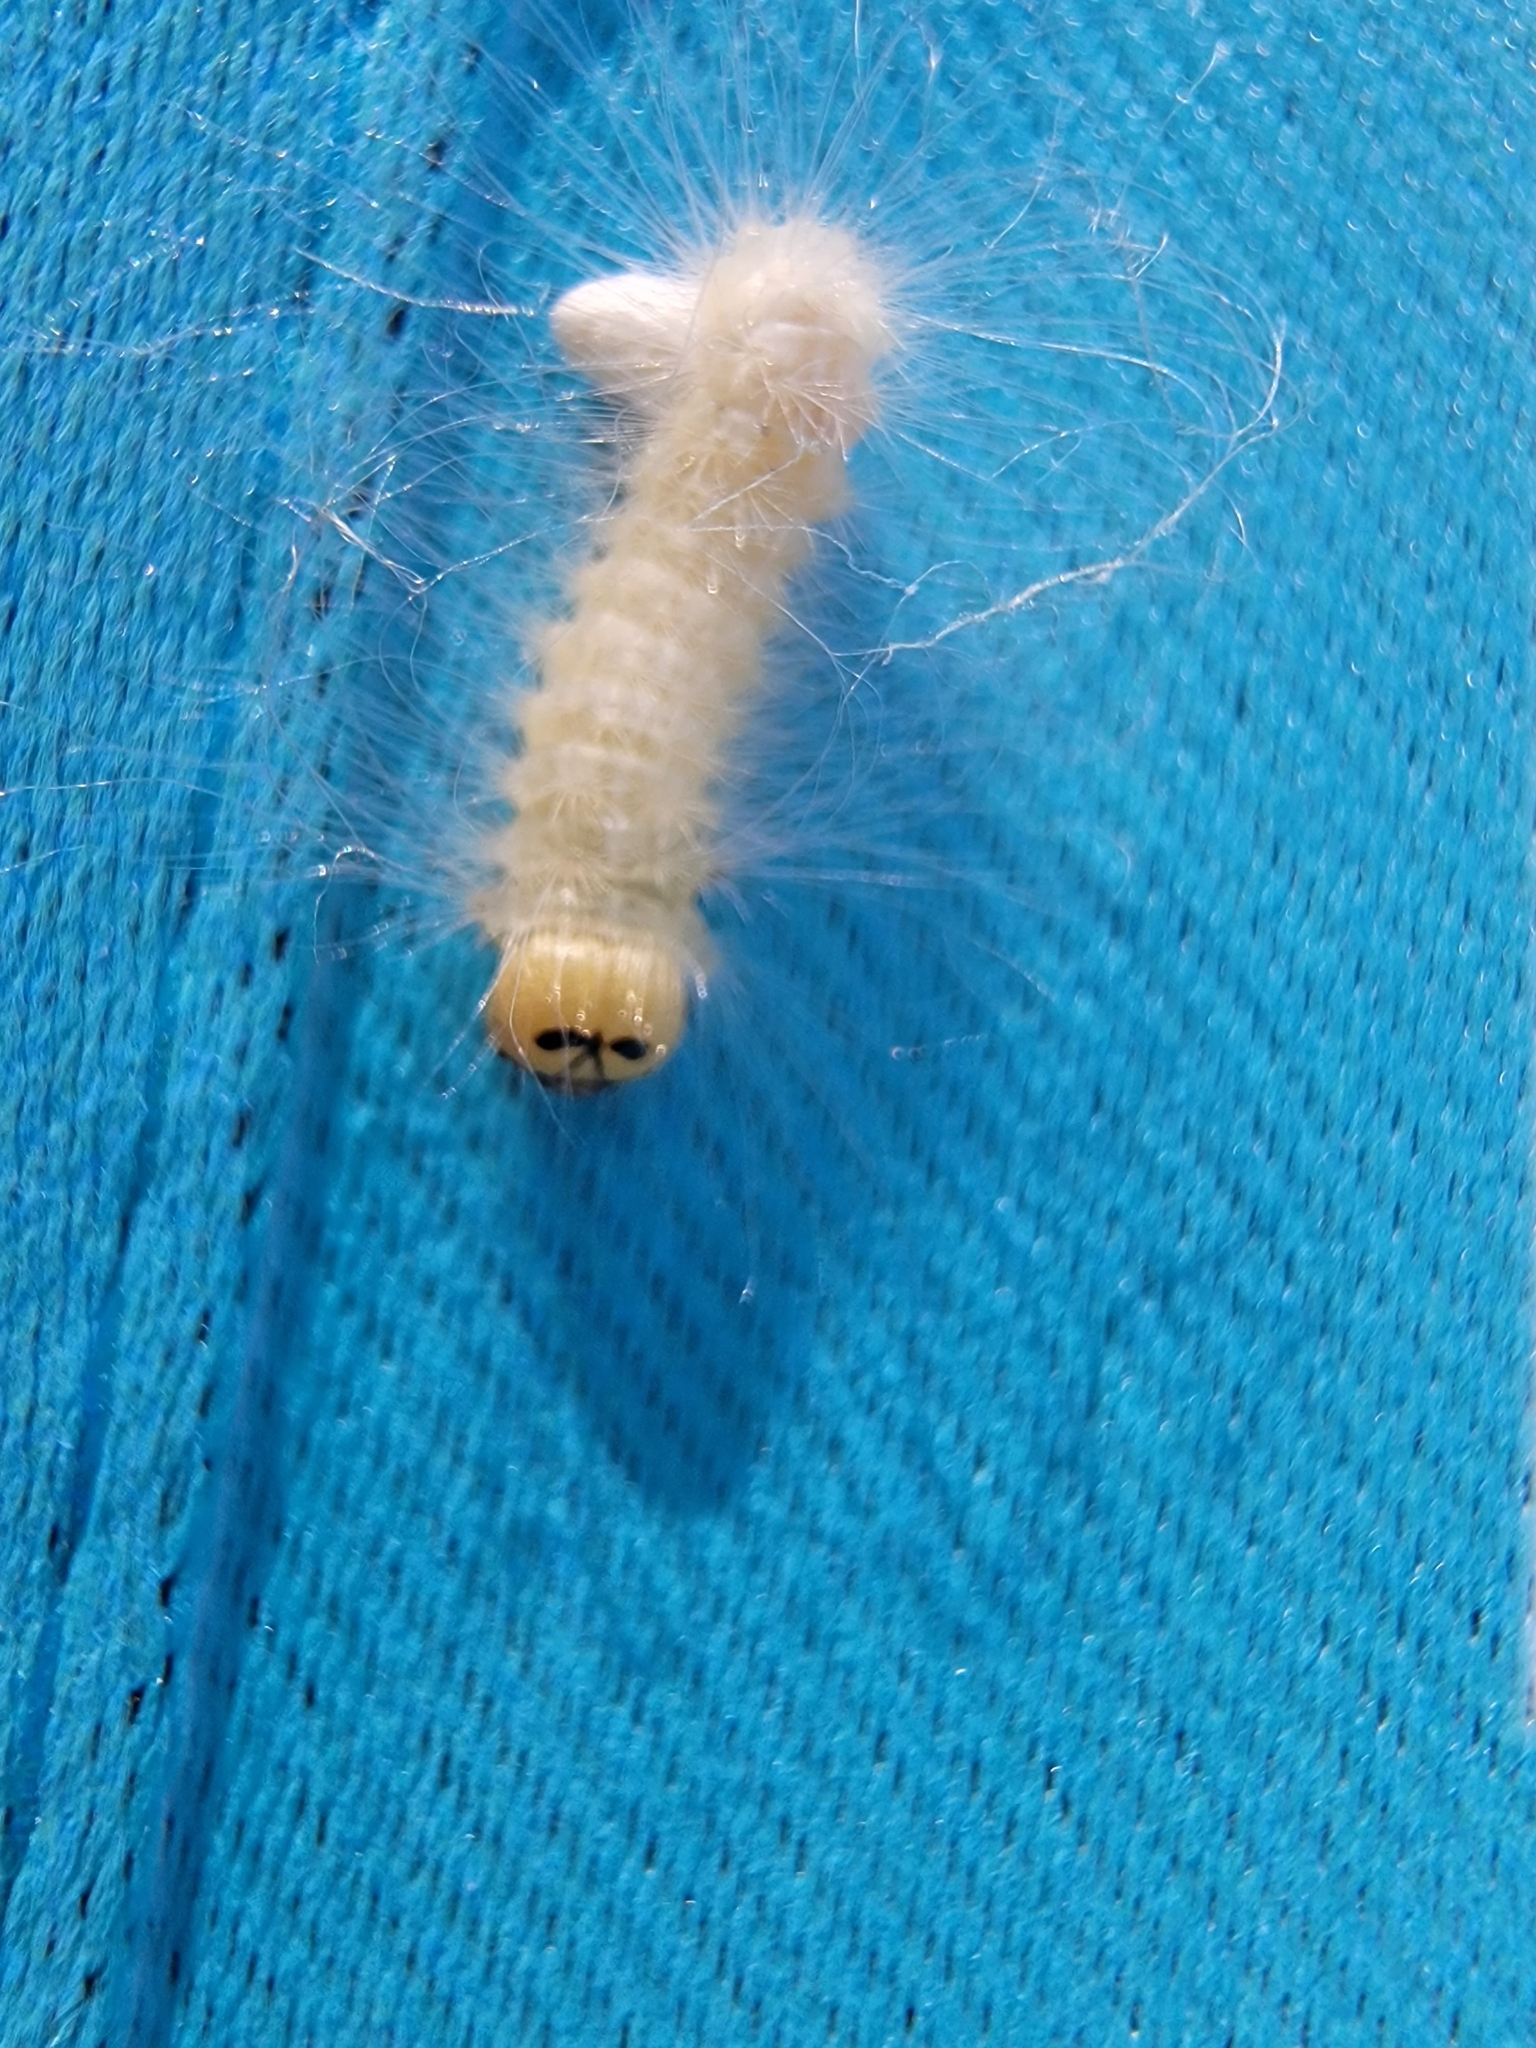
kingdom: Animalia
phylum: Arthropoda
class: Insecta
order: Lepidoptera
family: Noctuidae
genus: Charadra
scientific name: Charadra deridens
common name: Marbled tuffet
